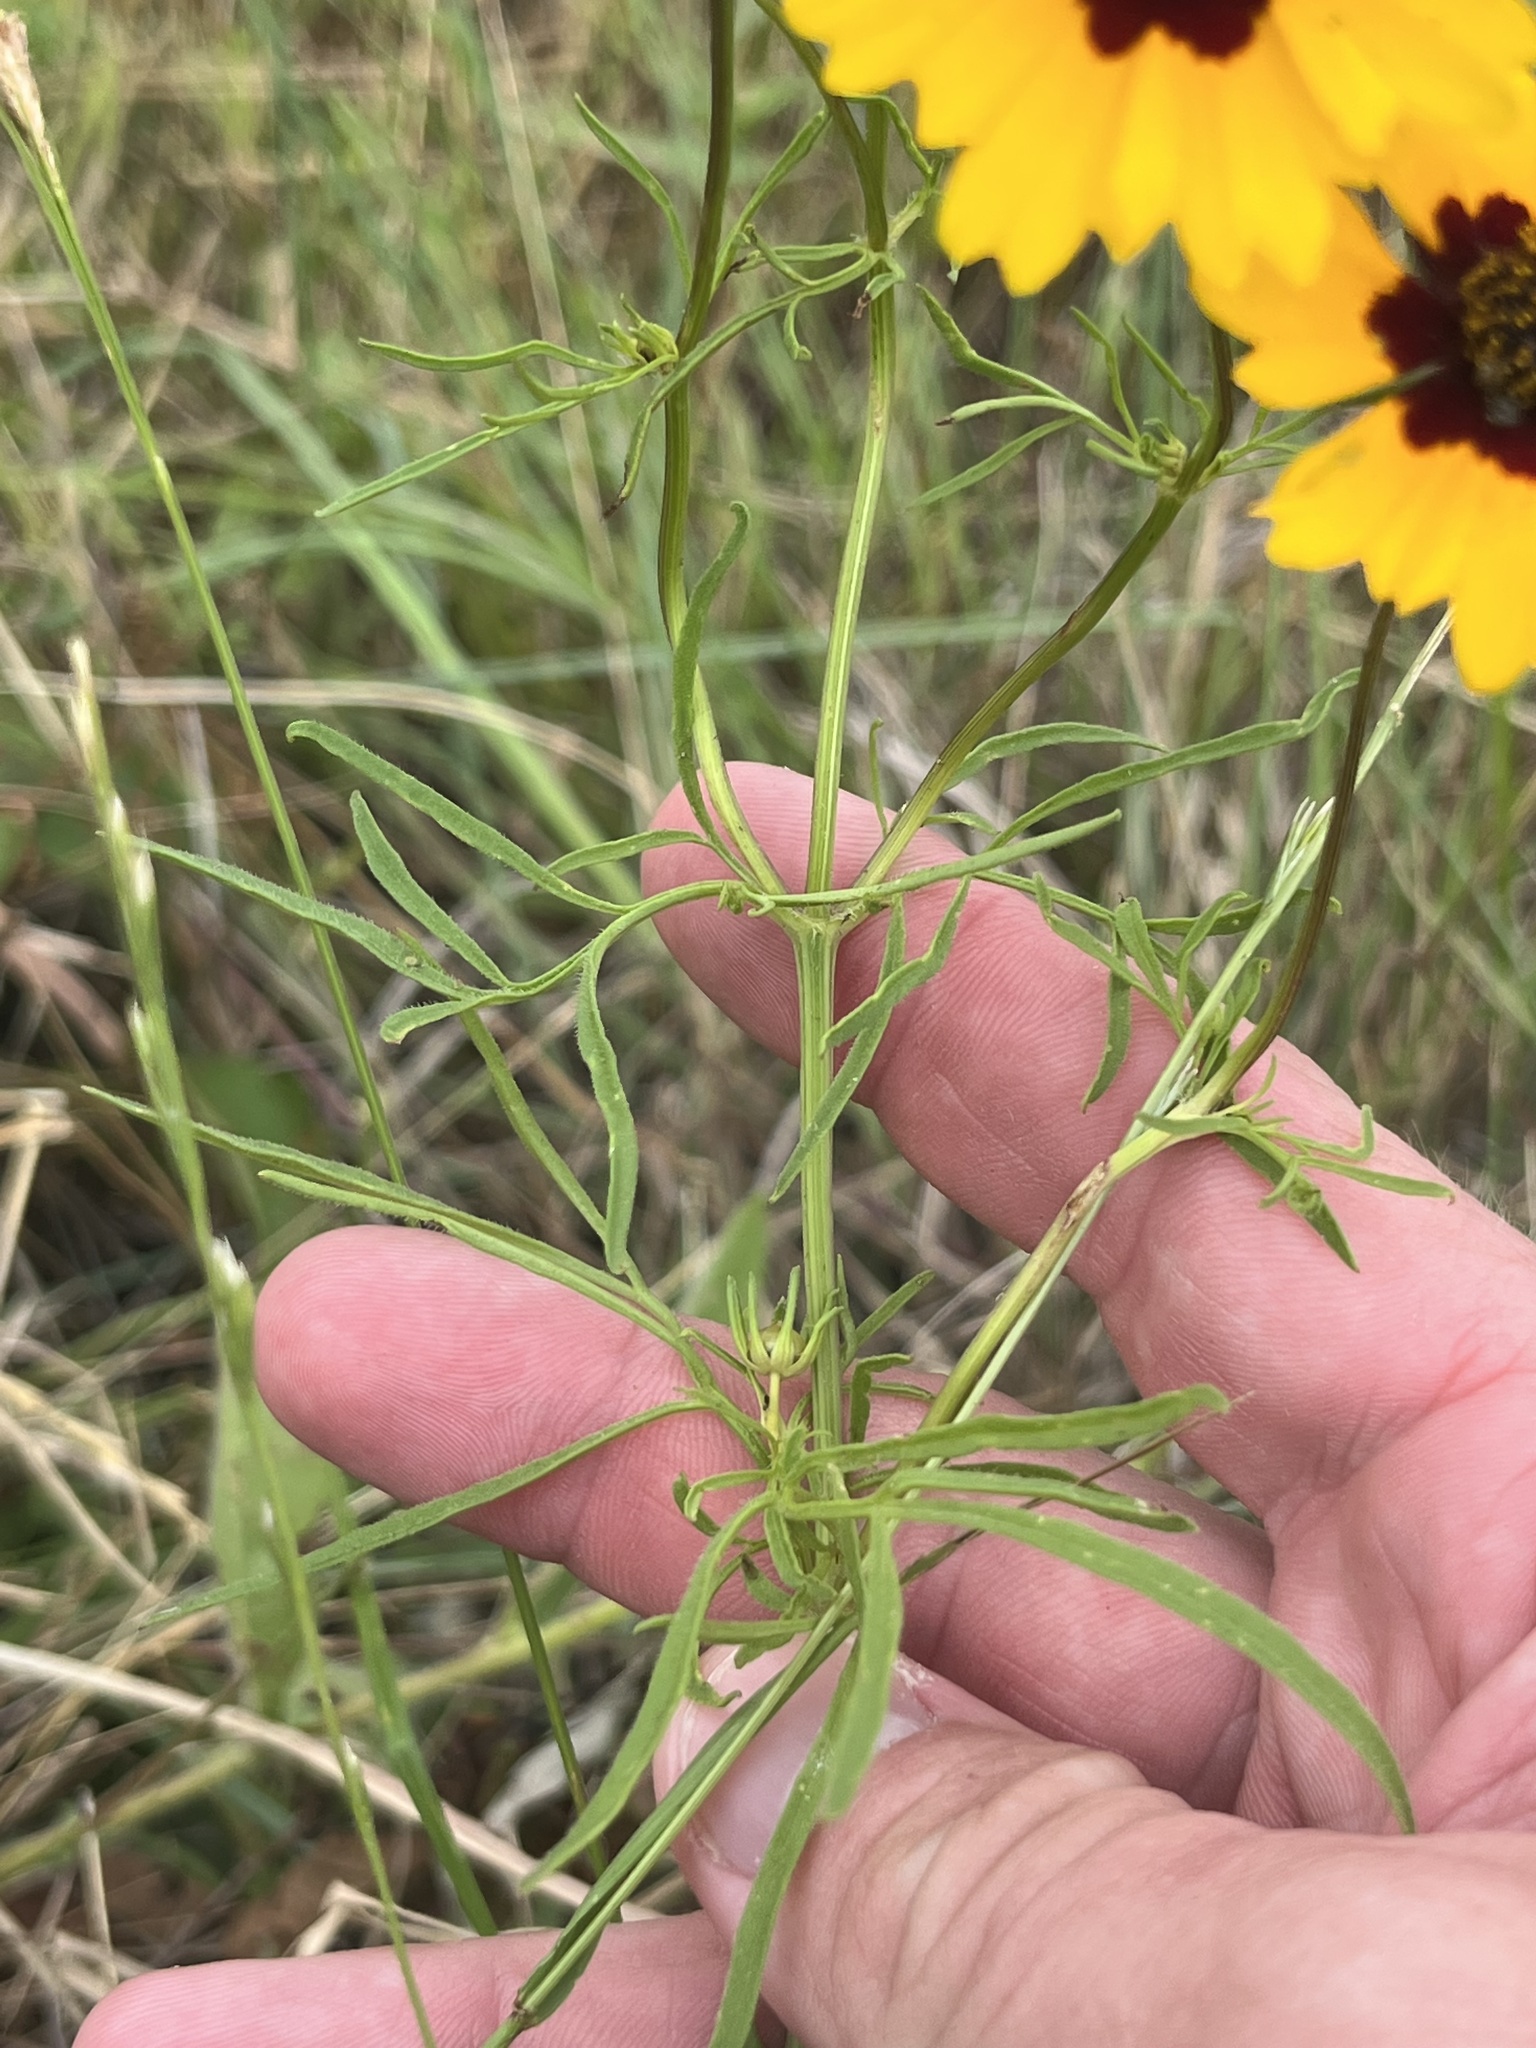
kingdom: Plantae
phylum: Tracheophyta
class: Magnoliopsida
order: Asterales
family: Asteraceae
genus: Coreopsis
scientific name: Coreopsis basalis
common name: Golden-mane coreopsis
